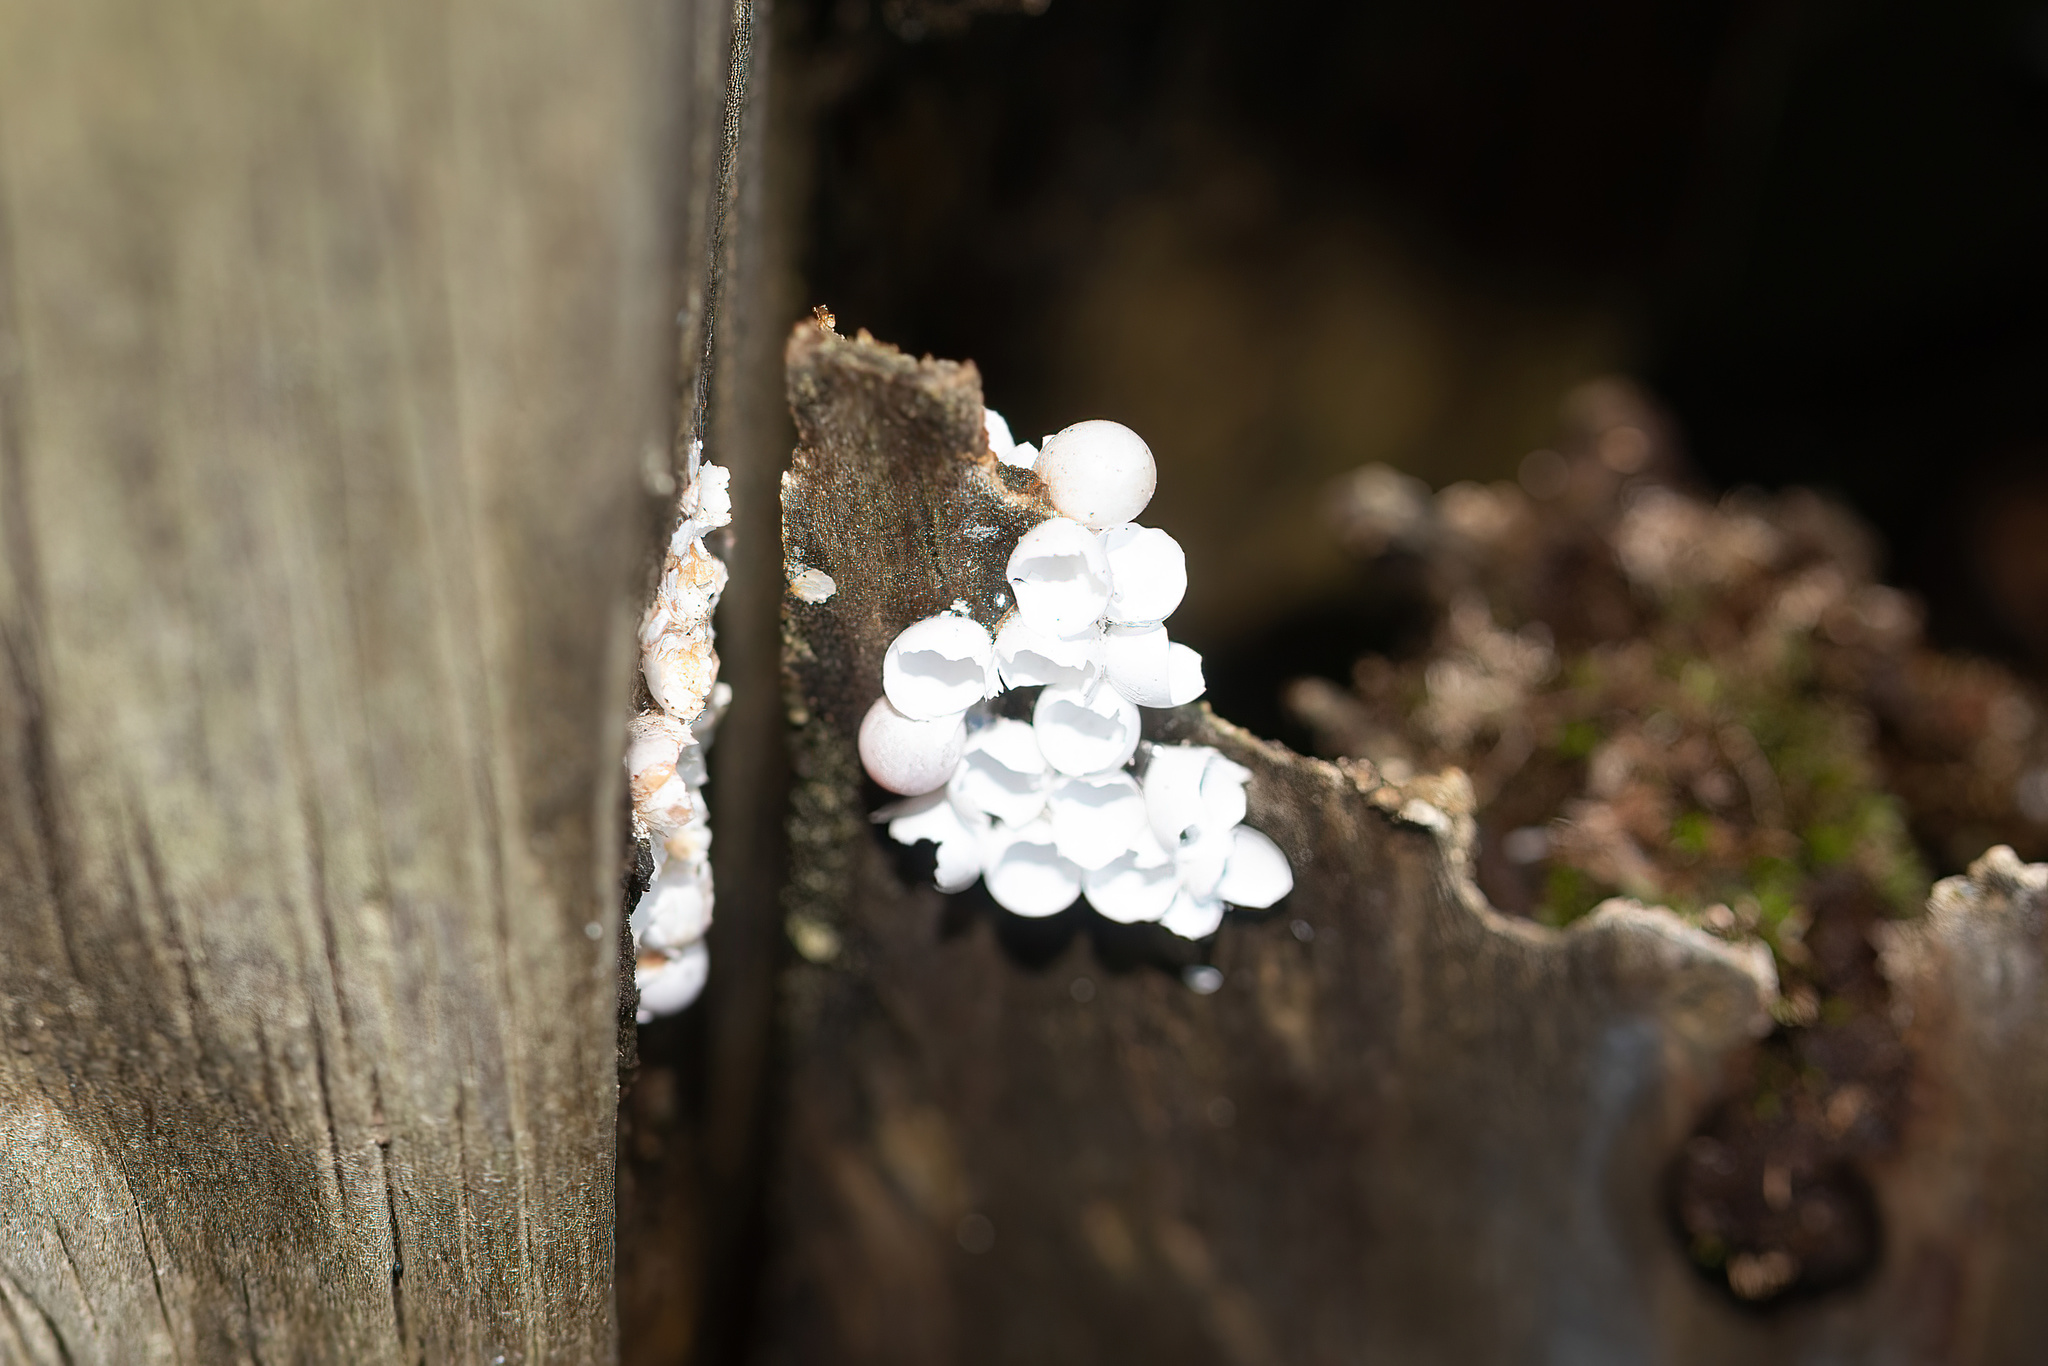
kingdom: Animalia
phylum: Mollusca
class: Gastropoda
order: Architaenioglossa
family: Ampullariidae
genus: Pomacea
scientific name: Pomacea paludosa
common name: Florida applesnail
